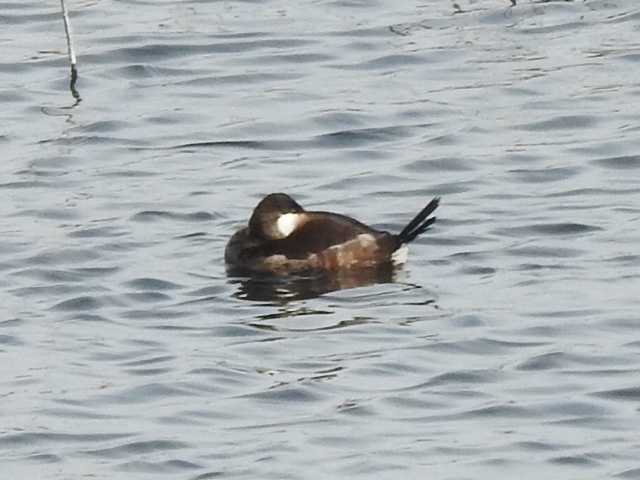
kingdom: Animalia
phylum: Chordata
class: Aves
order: Anseriformes
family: Anatidae
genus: Oxyura
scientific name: Oxyura jamaicensis
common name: Ruddy duck
